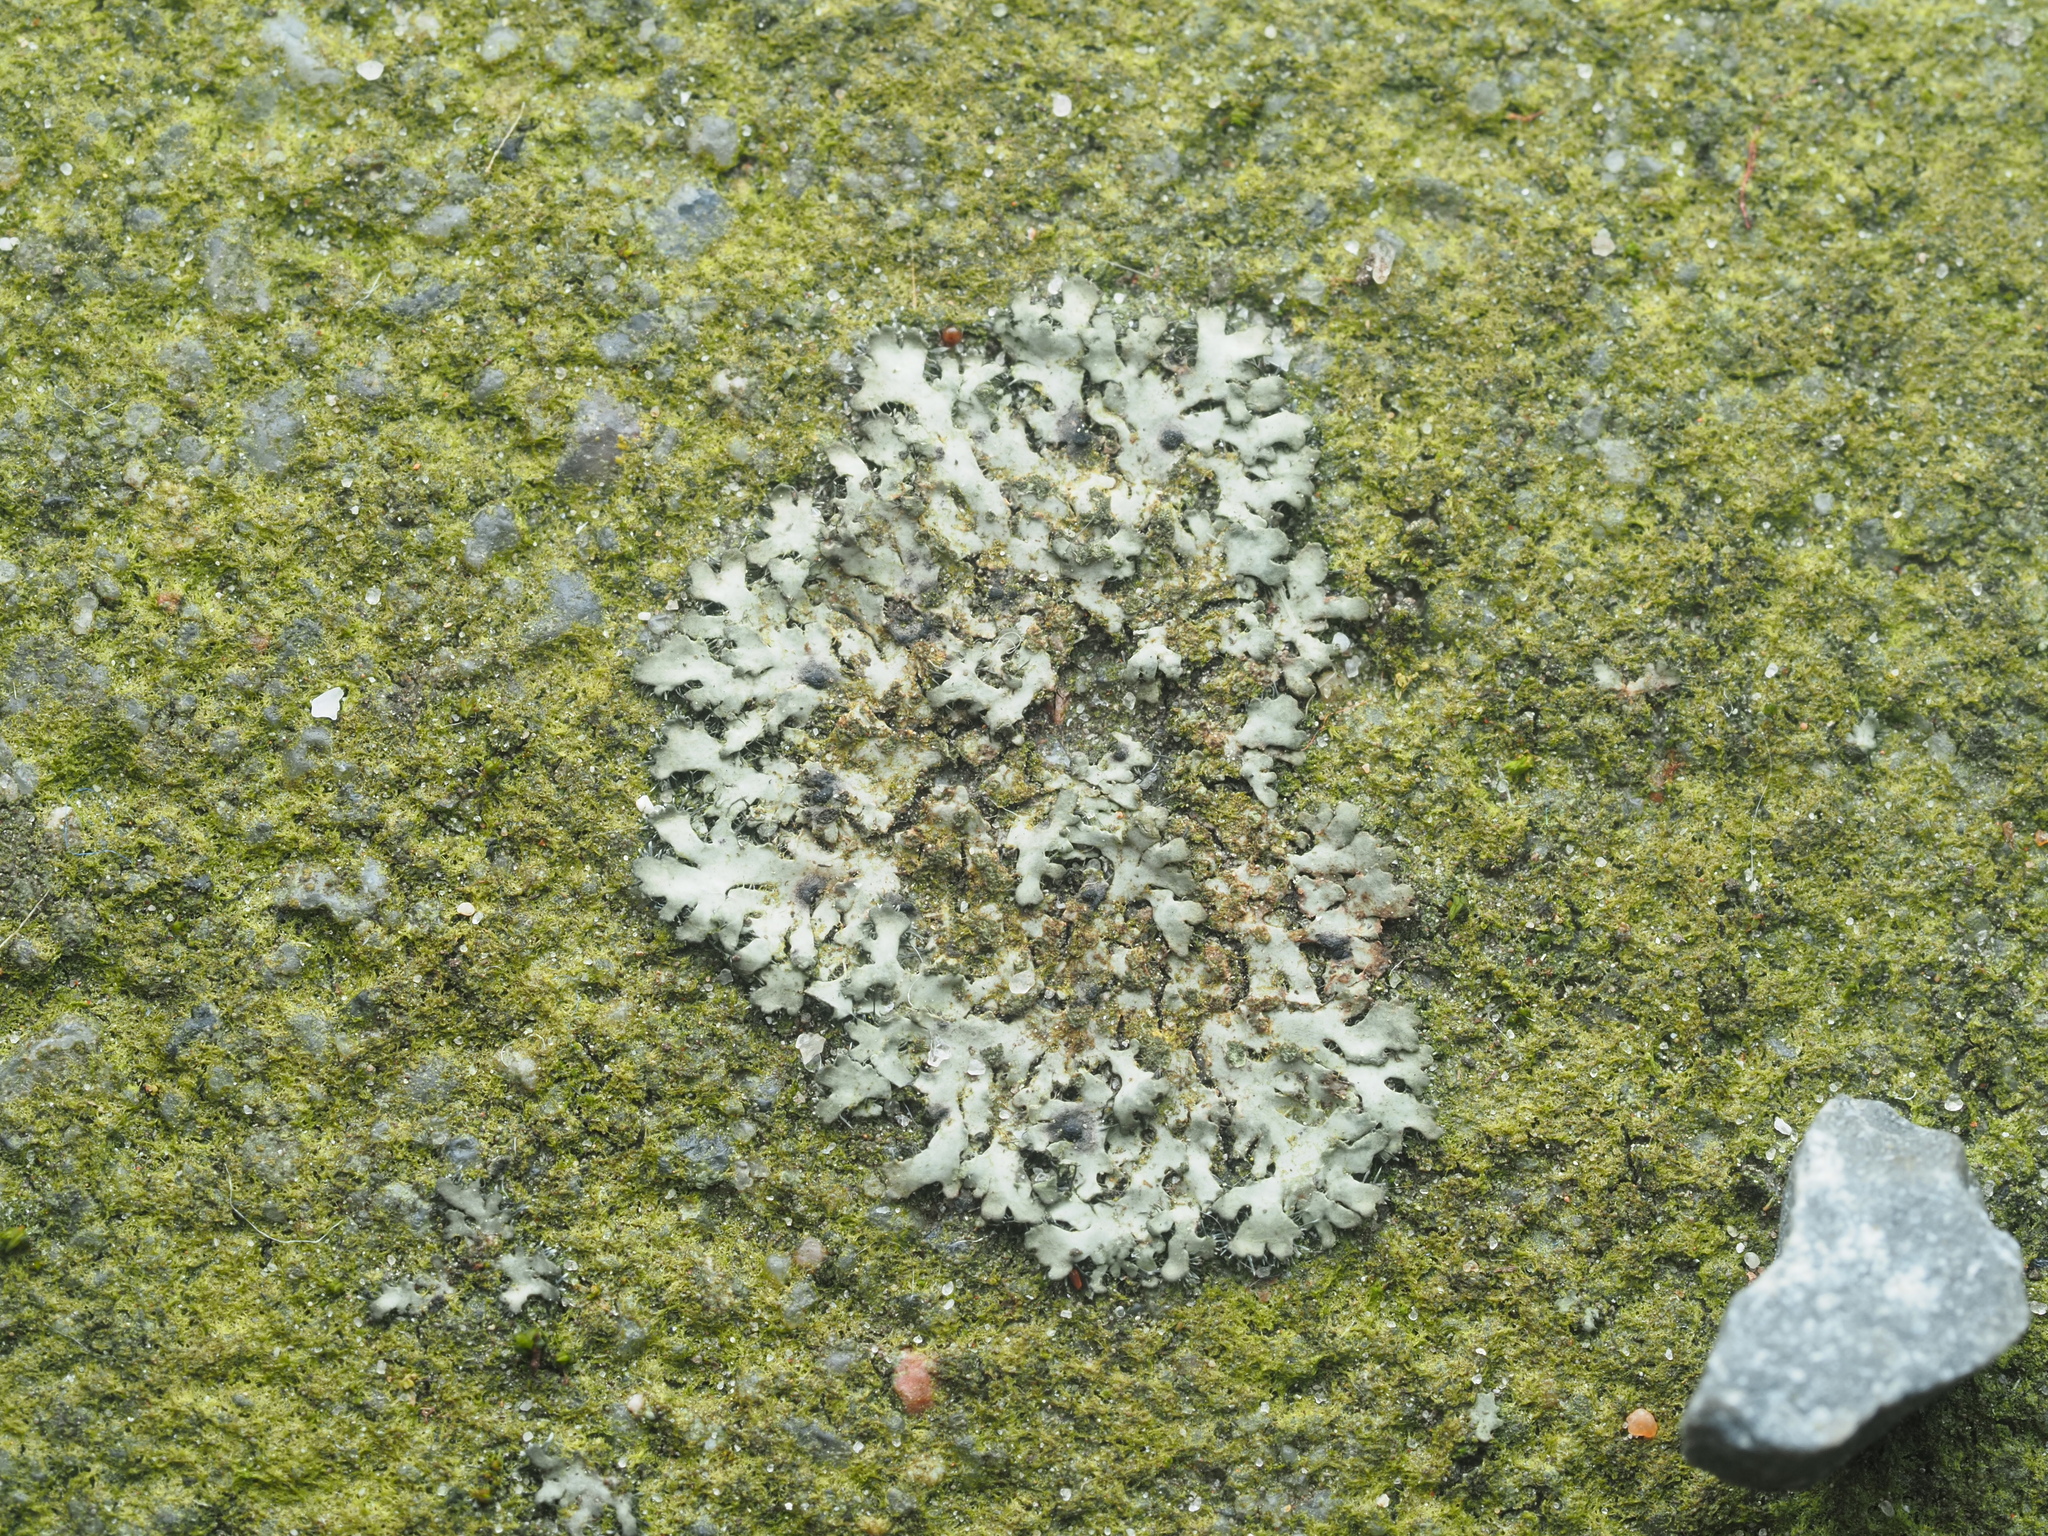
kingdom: Fungi
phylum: Ascomycota
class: Lecanoromycetes
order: Caliciales
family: Physciaceae
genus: Phaeophyscia
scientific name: Phaeophyscia orbicularis
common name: Mealy shadow lichen
